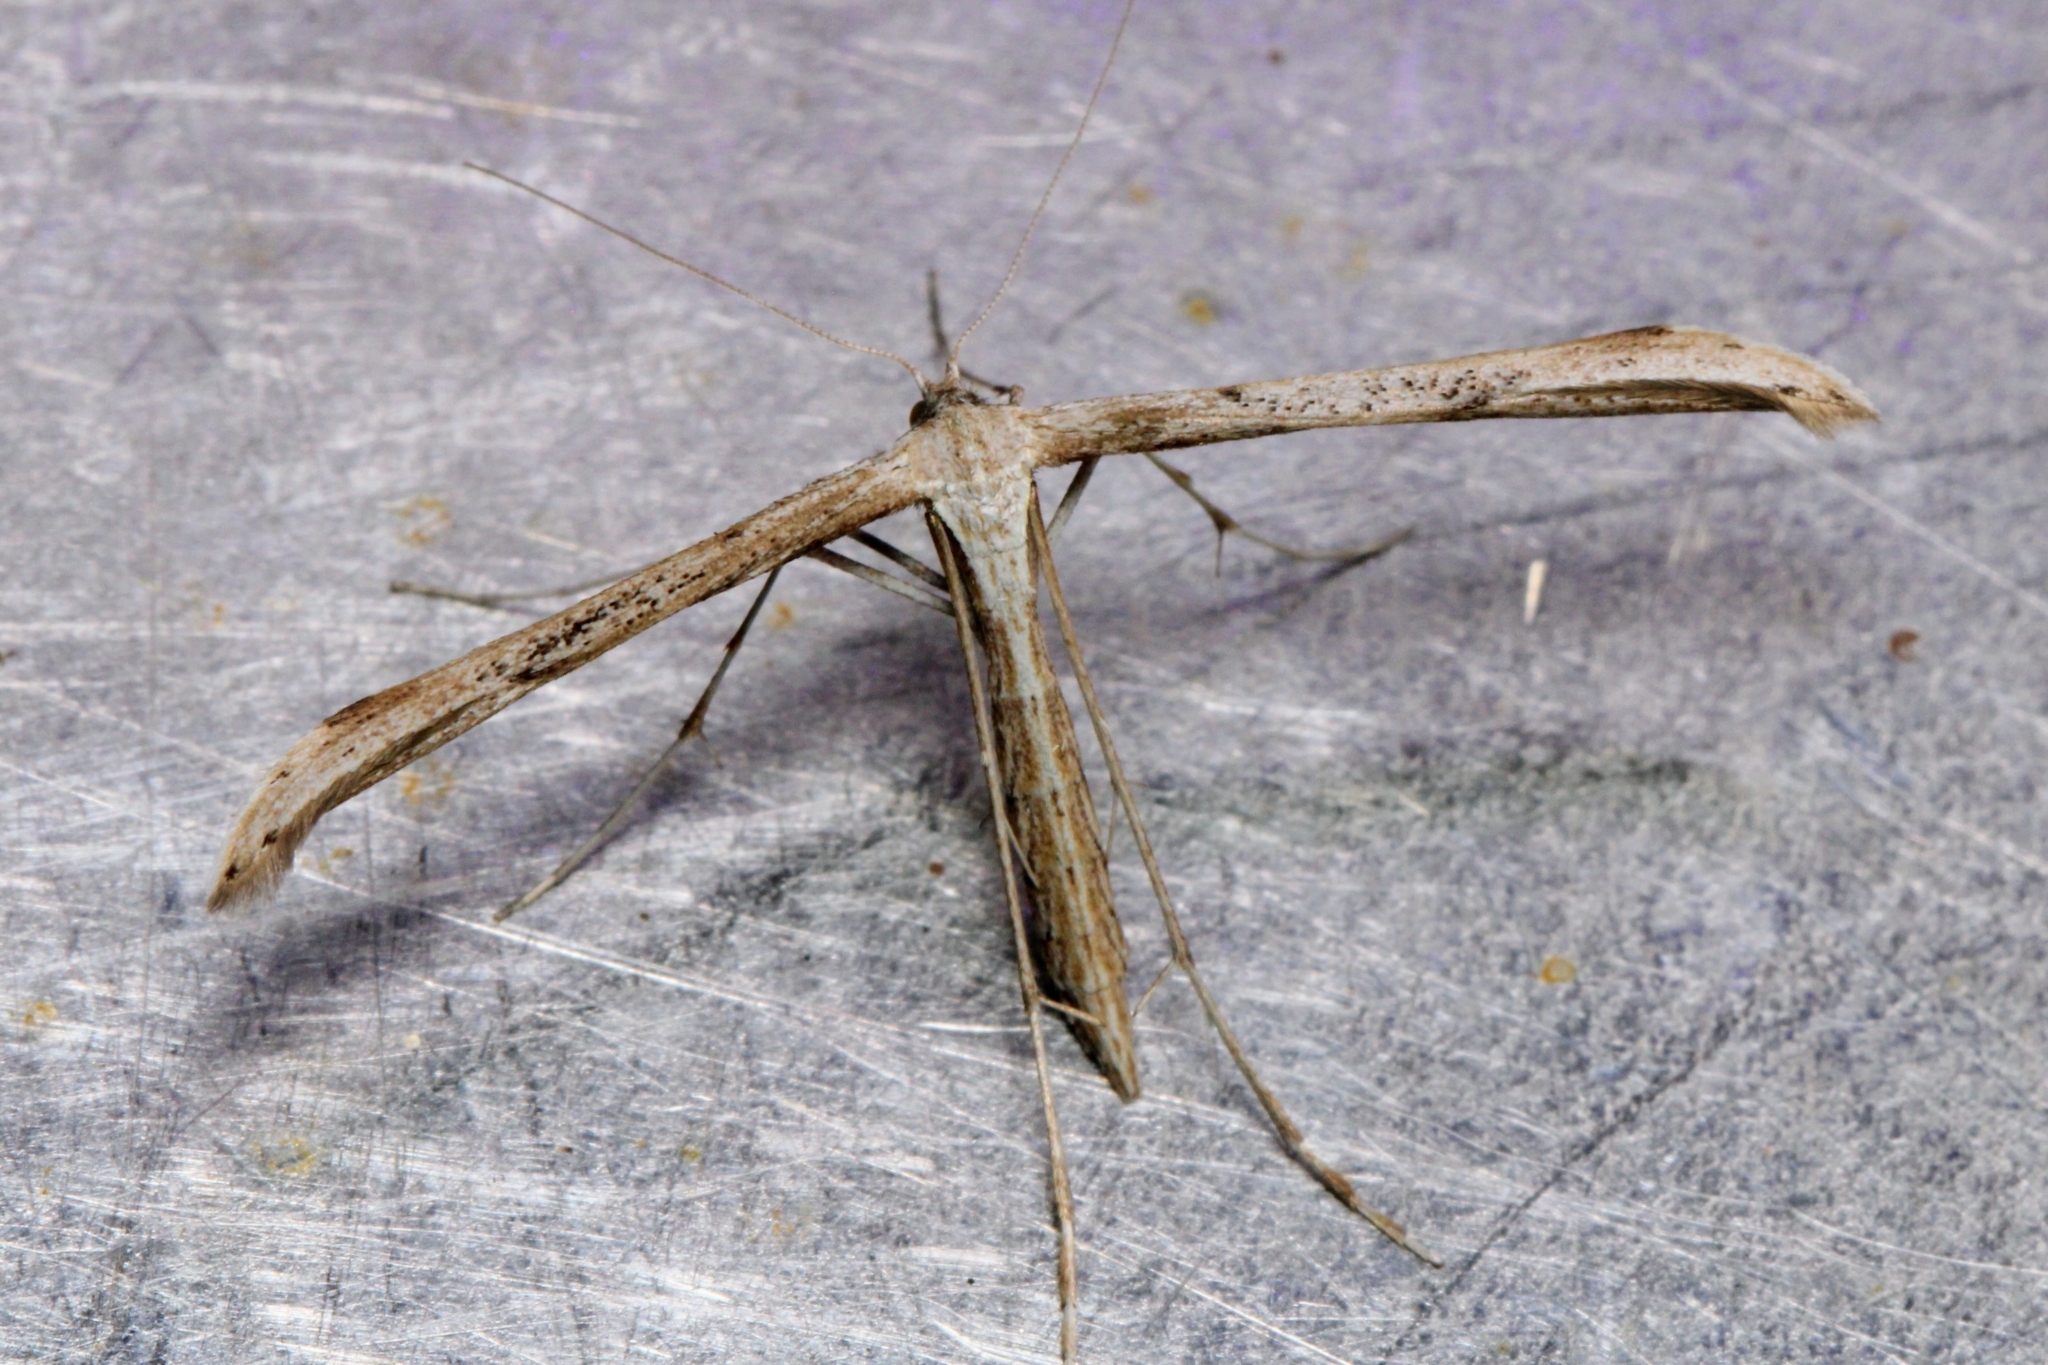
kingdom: Animalia
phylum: Arthropoda
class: Insecta
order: Lepidoptera
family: Pterophoridae
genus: Emmelina
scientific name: Emmelina monodactyla
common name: Common plume
